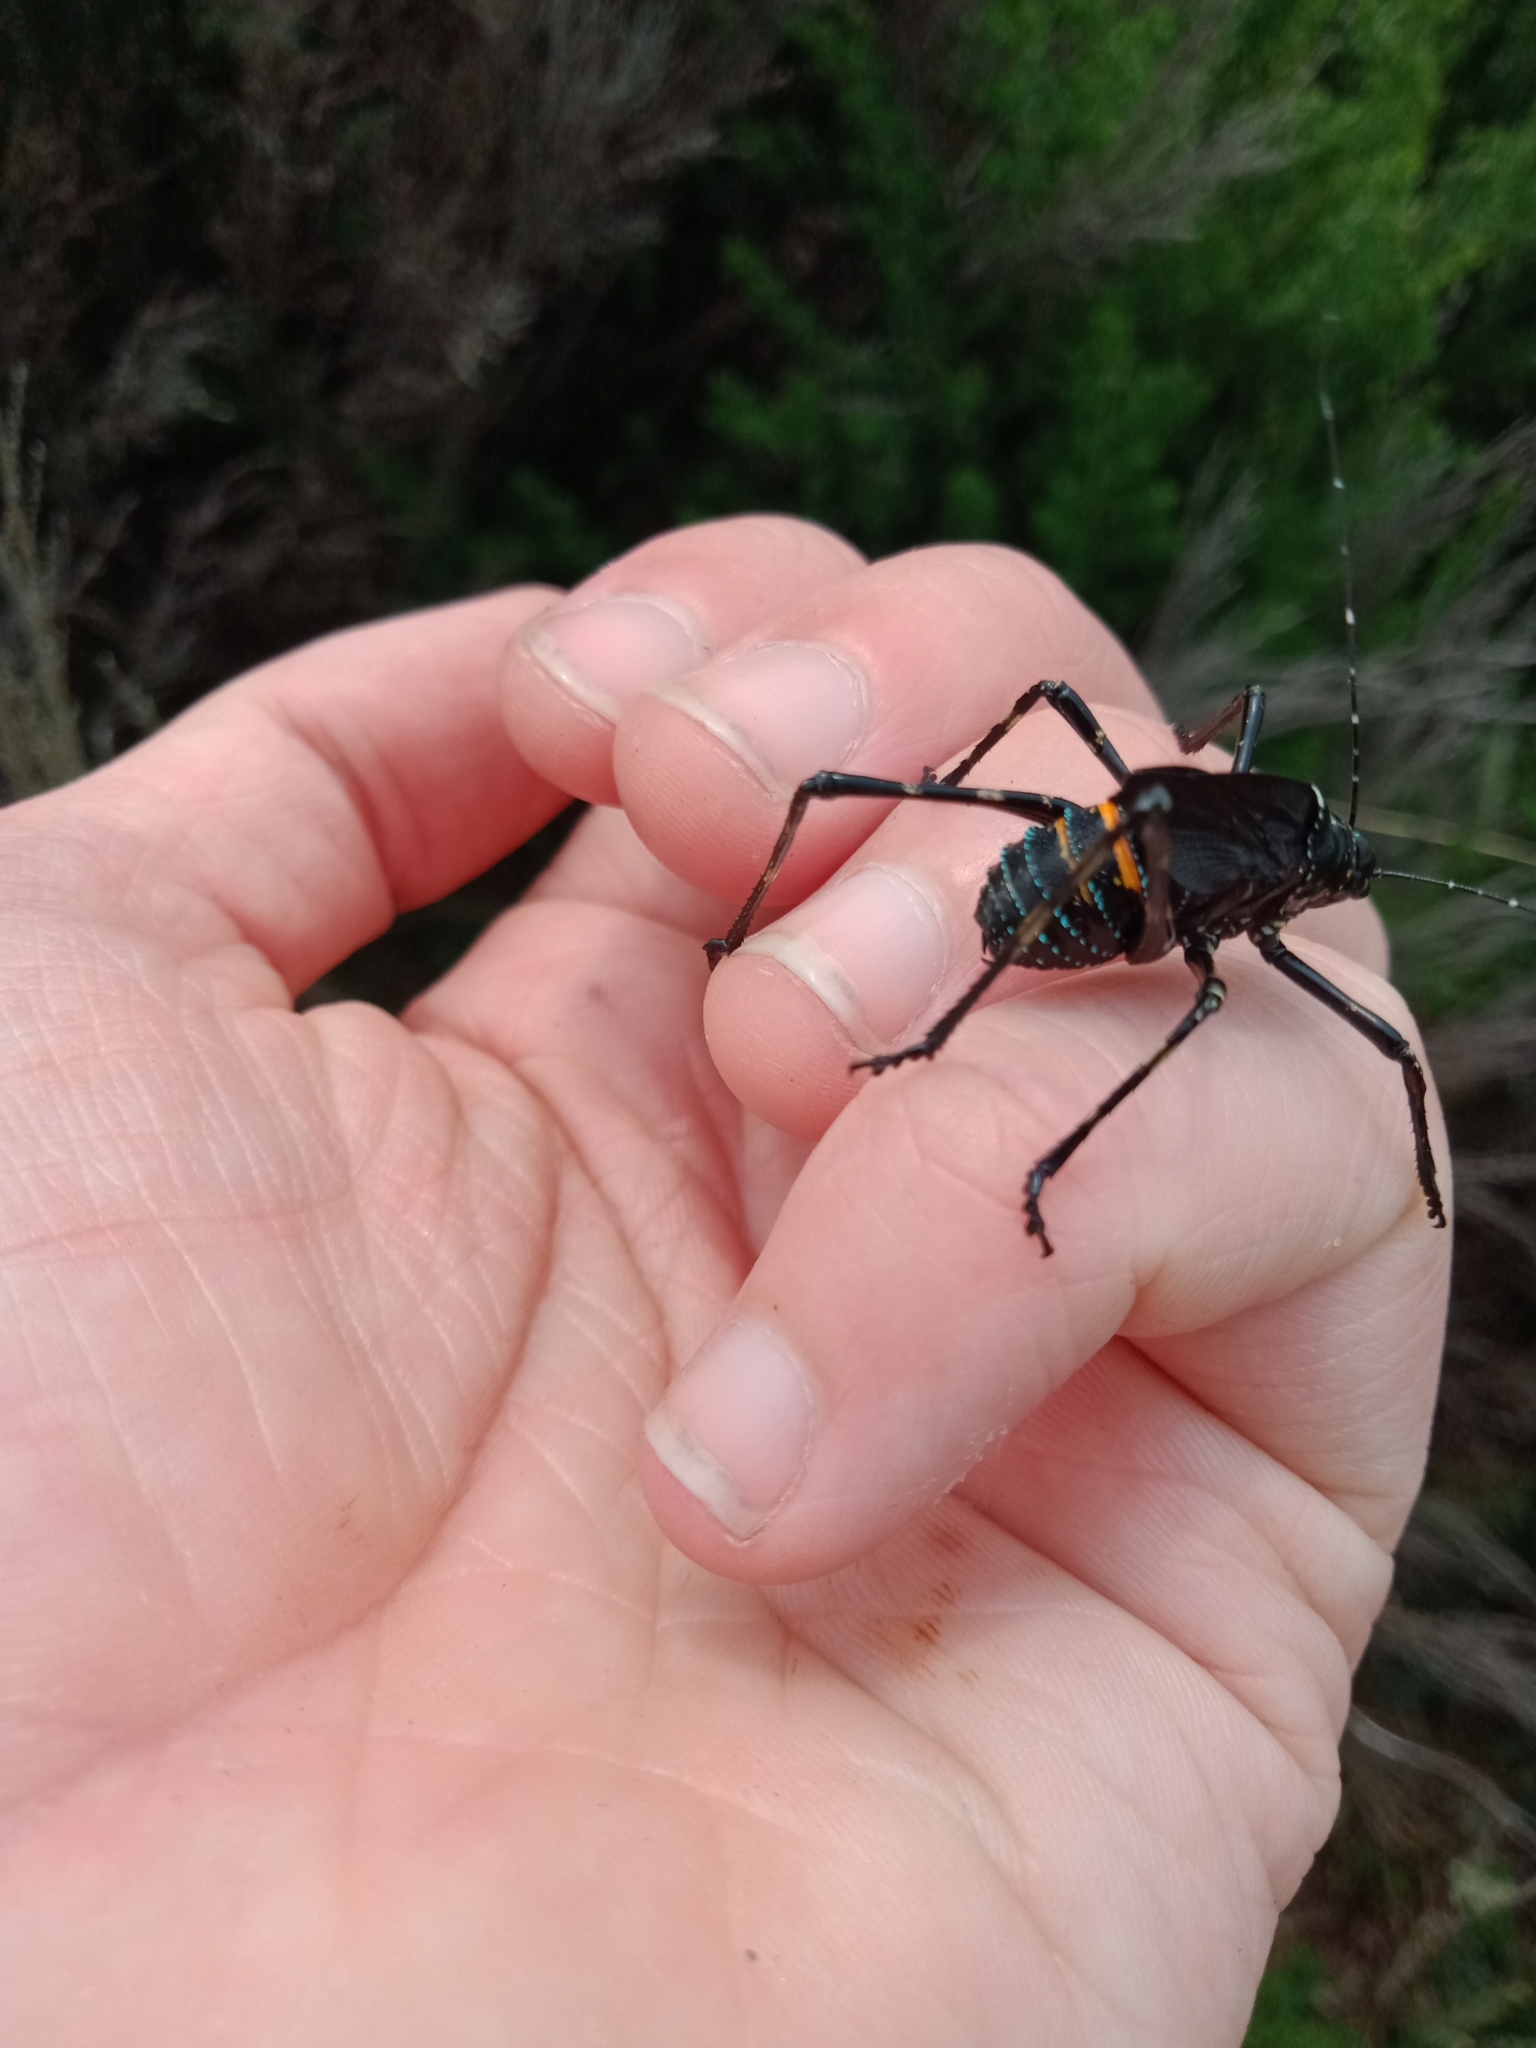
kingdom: Animalia
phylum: Arthropoda
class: Insecta
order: Orthoptera
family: Tettigoniidae
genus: Acripeza
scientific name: Acripeza reticulata
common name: Mountain katydid
